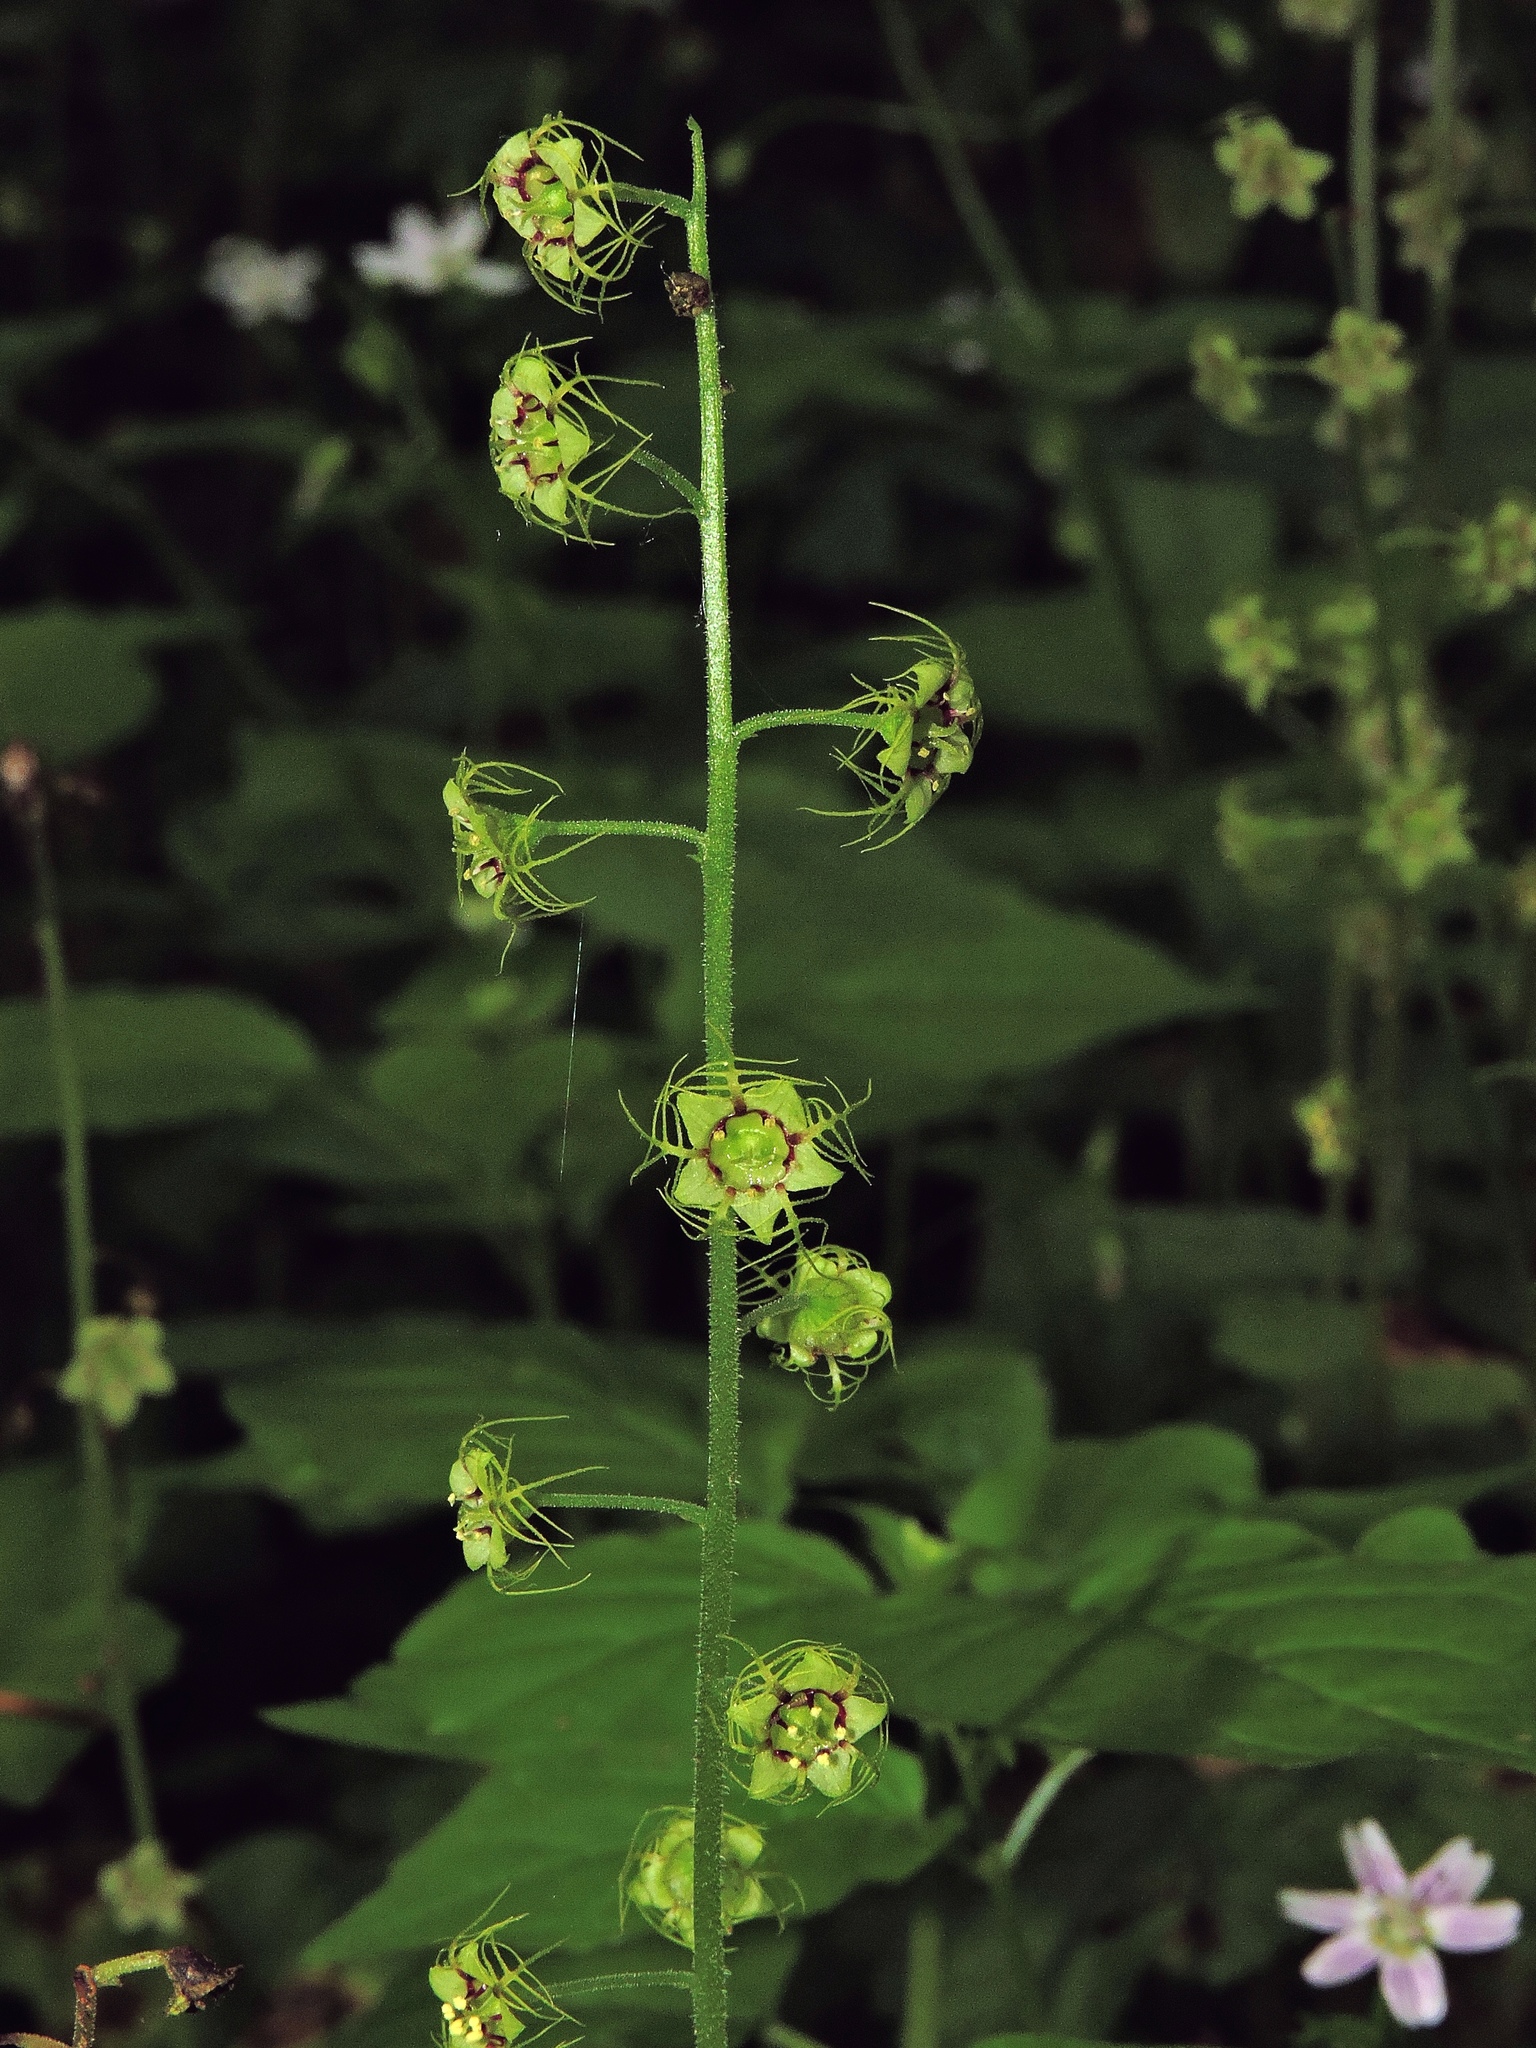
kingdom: Plantae
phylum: Tracheophyta
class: Magnoliopsida
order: Saxifragales
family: Saxifragaceae
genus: Mitellastra
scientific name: Mitellastra caulescens
